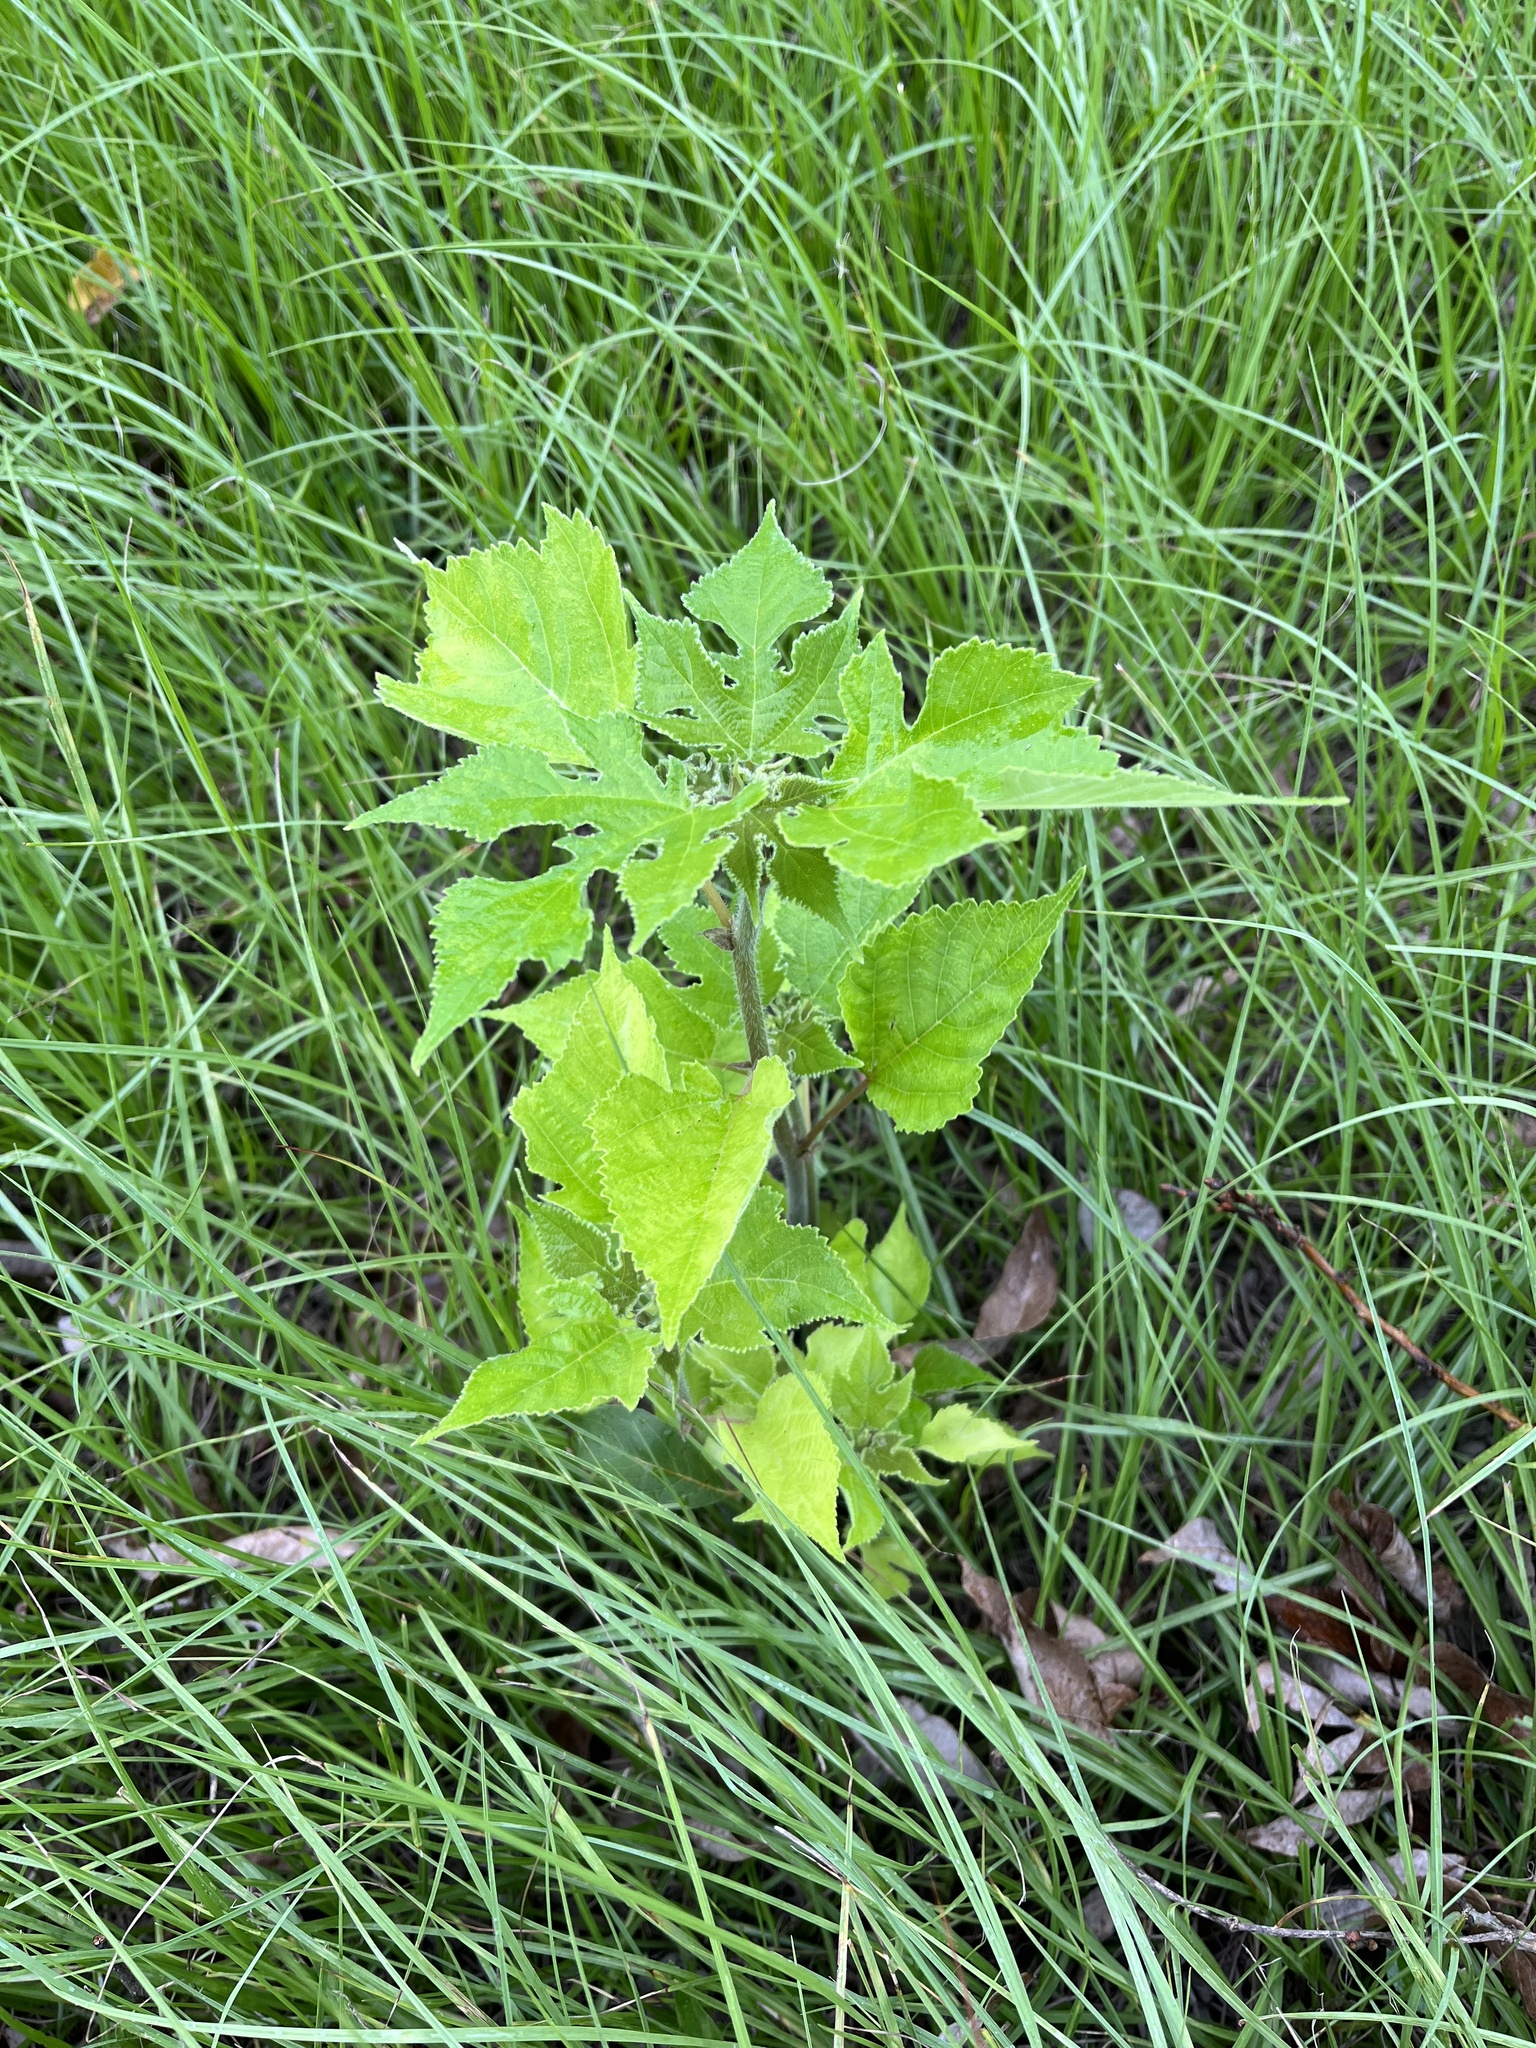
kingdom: Plantae
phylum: Tracheophyta
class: Magnoliopsida
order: Rosales
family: Moraceae
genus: Broussonetia
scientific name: Broussonetia papyrifera
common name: Paper mulberry
